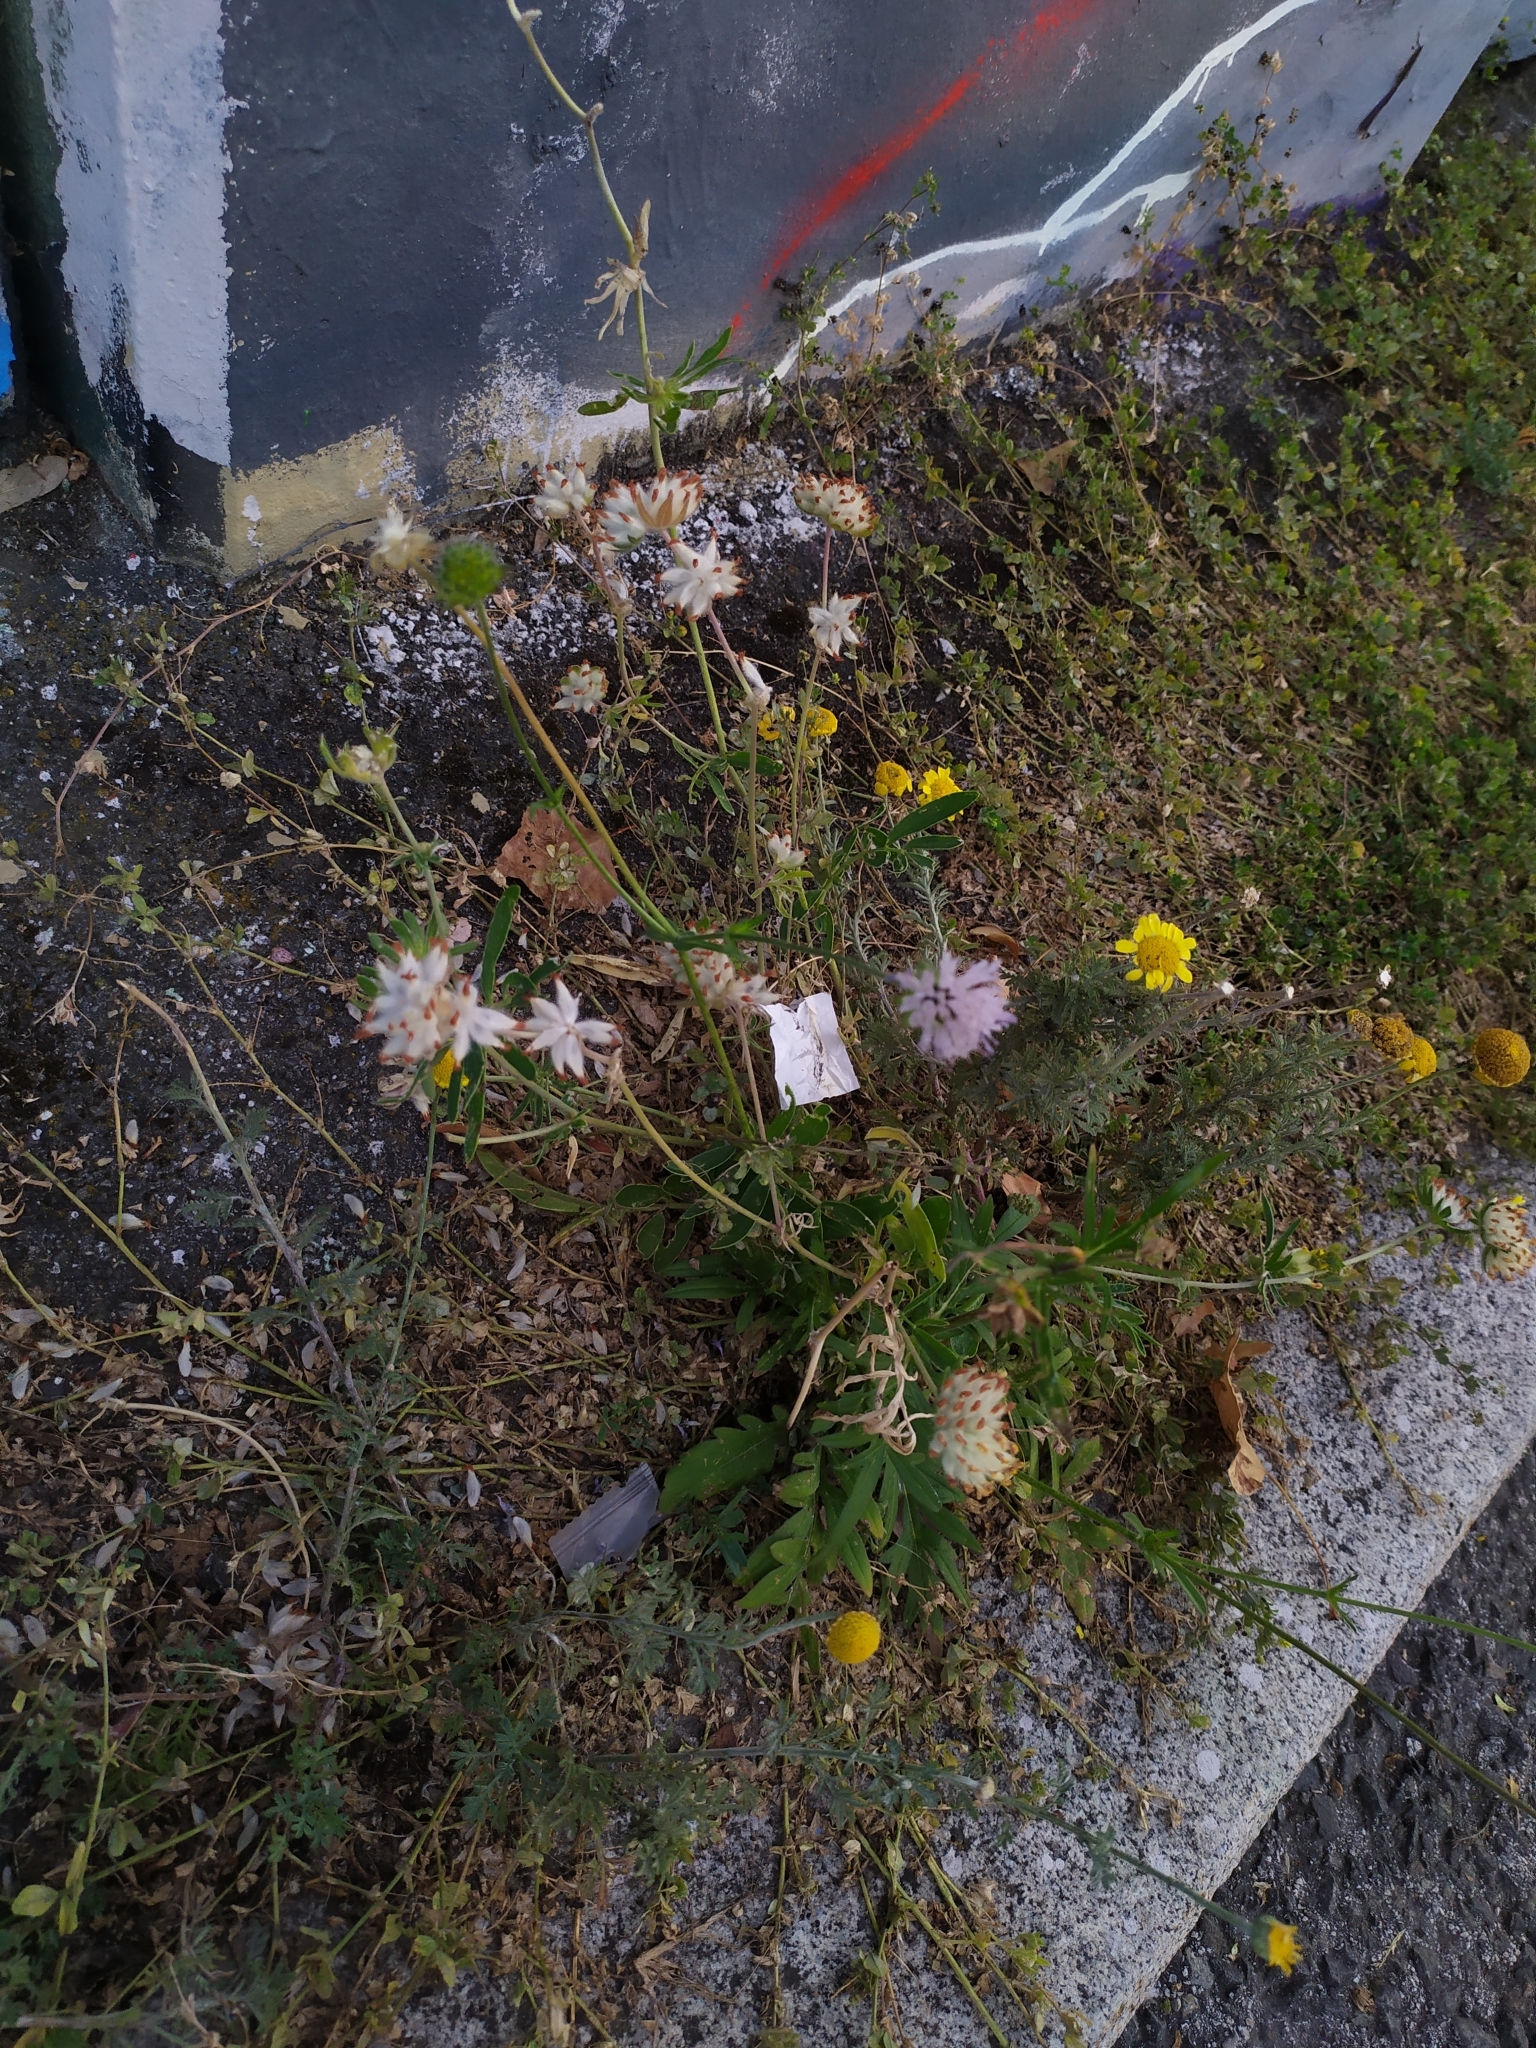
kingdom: Plantae
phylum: Tracheophyta
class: Magnoliopsida
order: Fabales
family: Fabaceae
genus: Anthyllis
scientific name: Anthyllis vulneraria
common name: Kidney vetch
